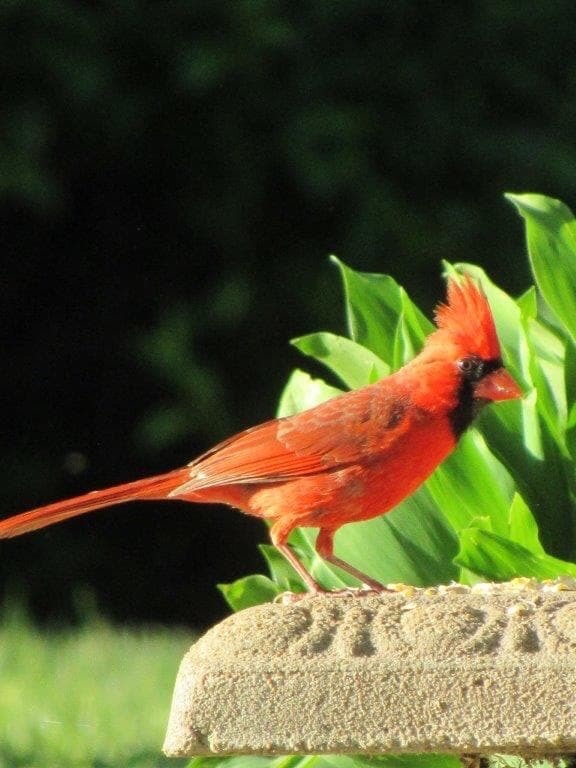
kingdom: Animalia
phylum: Chordata
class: Aves
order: Passeriformes
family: Cardinalidae
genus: Cardinalis
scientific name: Cardinalis cardinalis
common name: Northern cardinal
